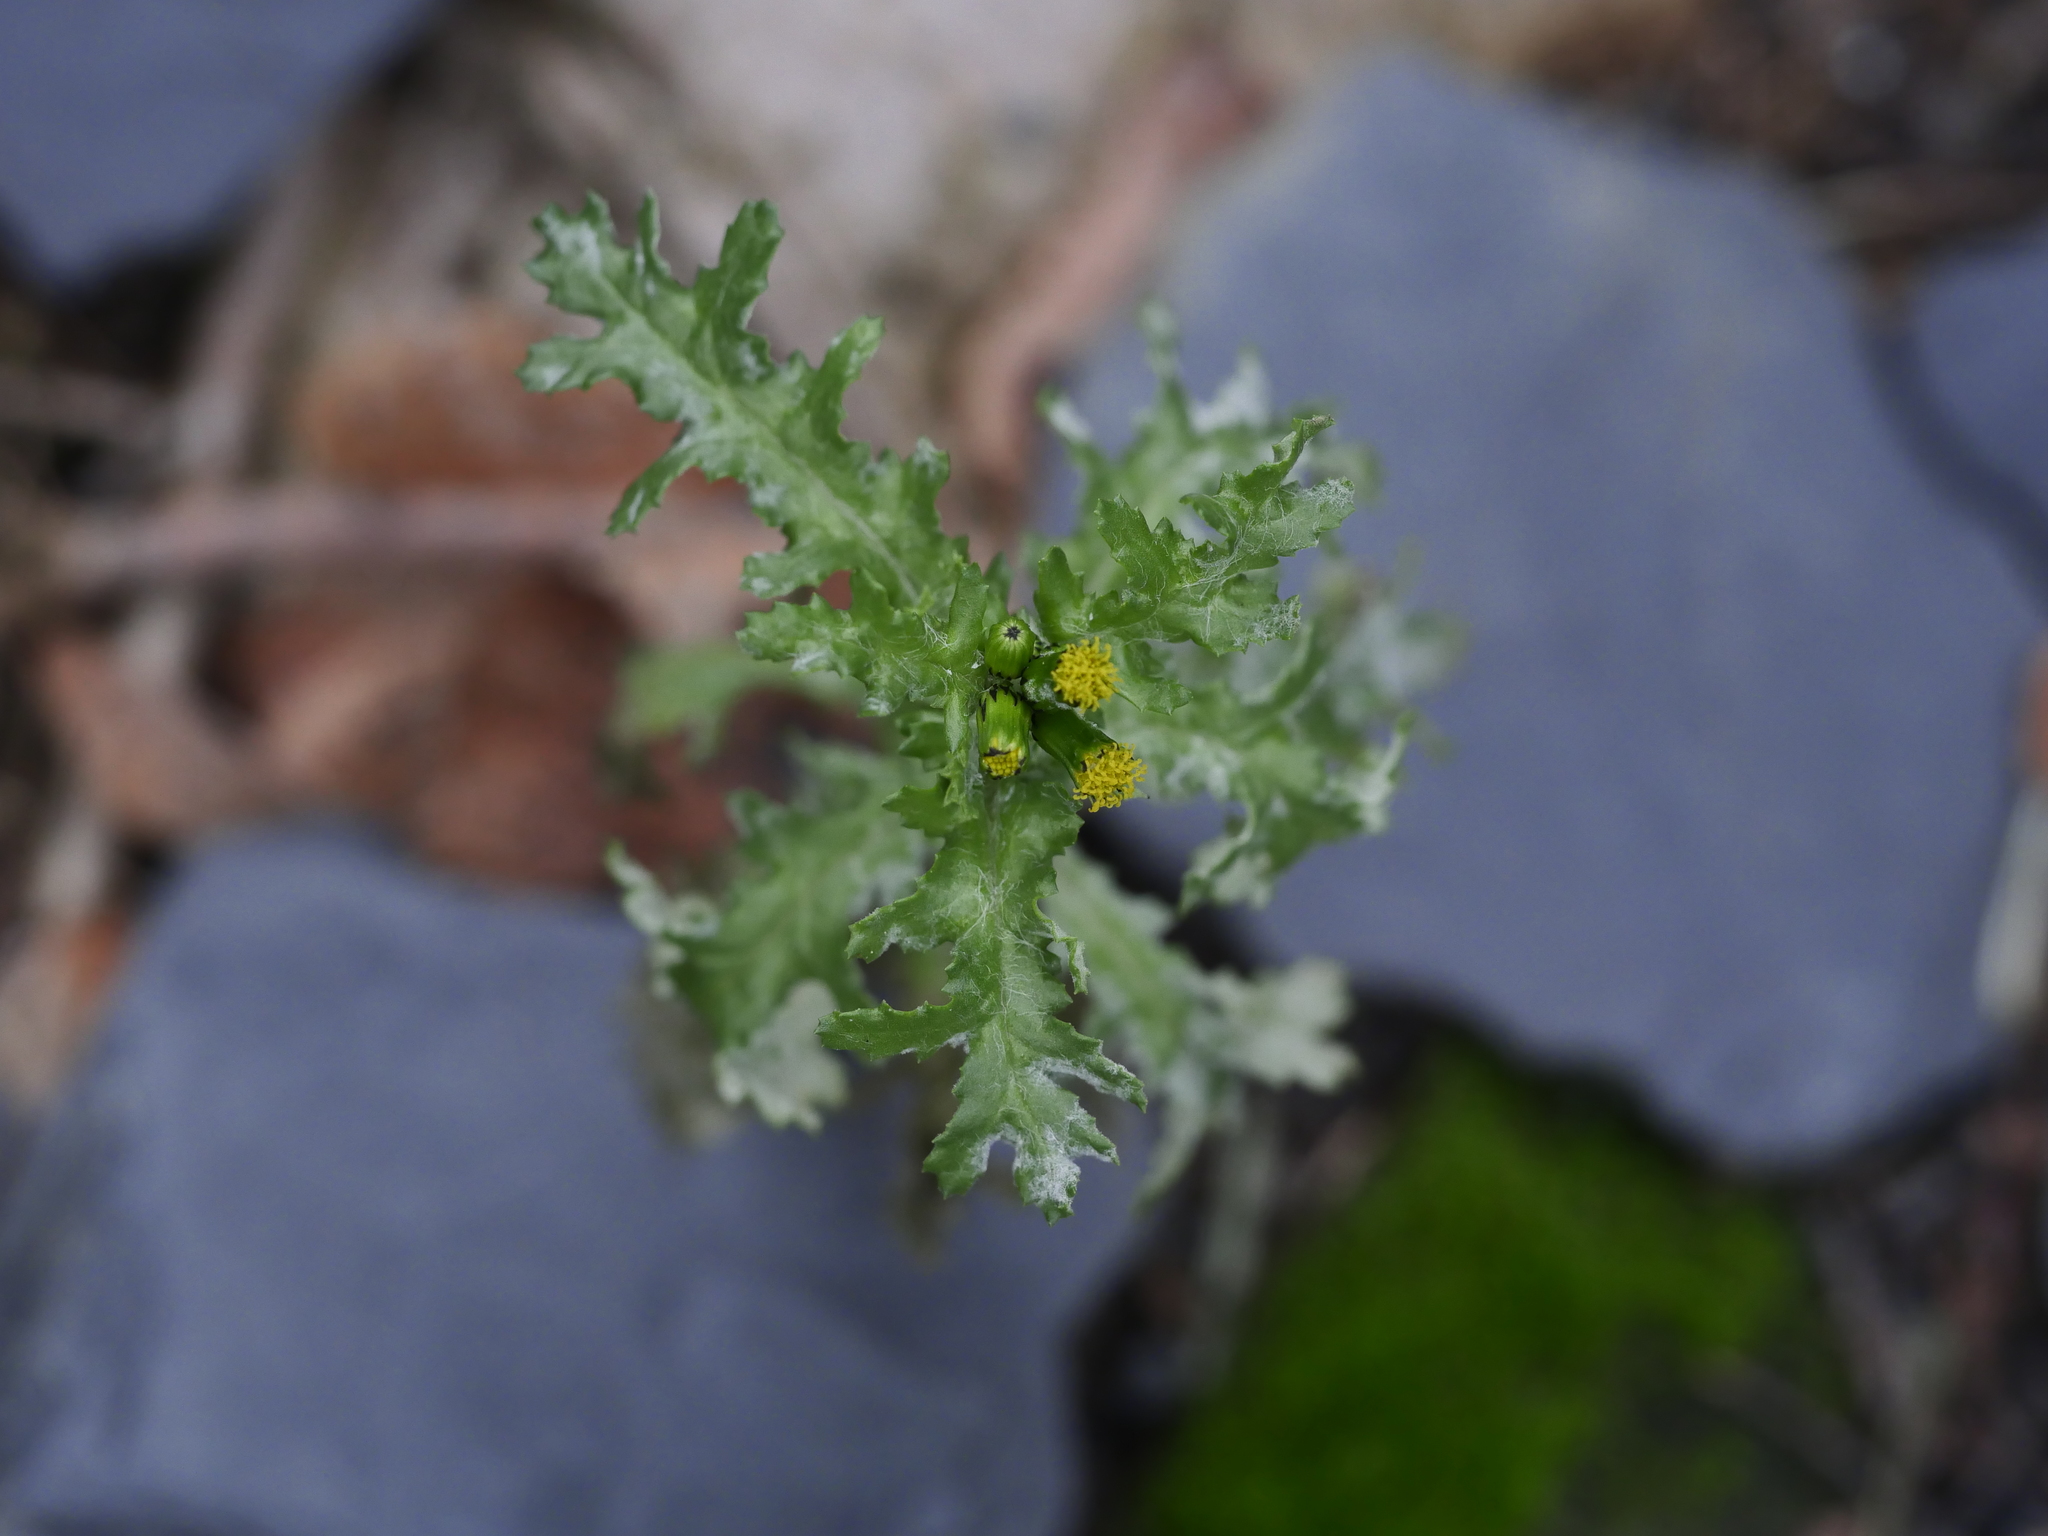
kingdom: Plantae
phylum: Tracheophyta
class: Magnoliopsida
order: Asterales
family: Asteraceae
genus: Senecio
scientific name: Senecio vulgaris
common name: Old-man-in-the-spring
